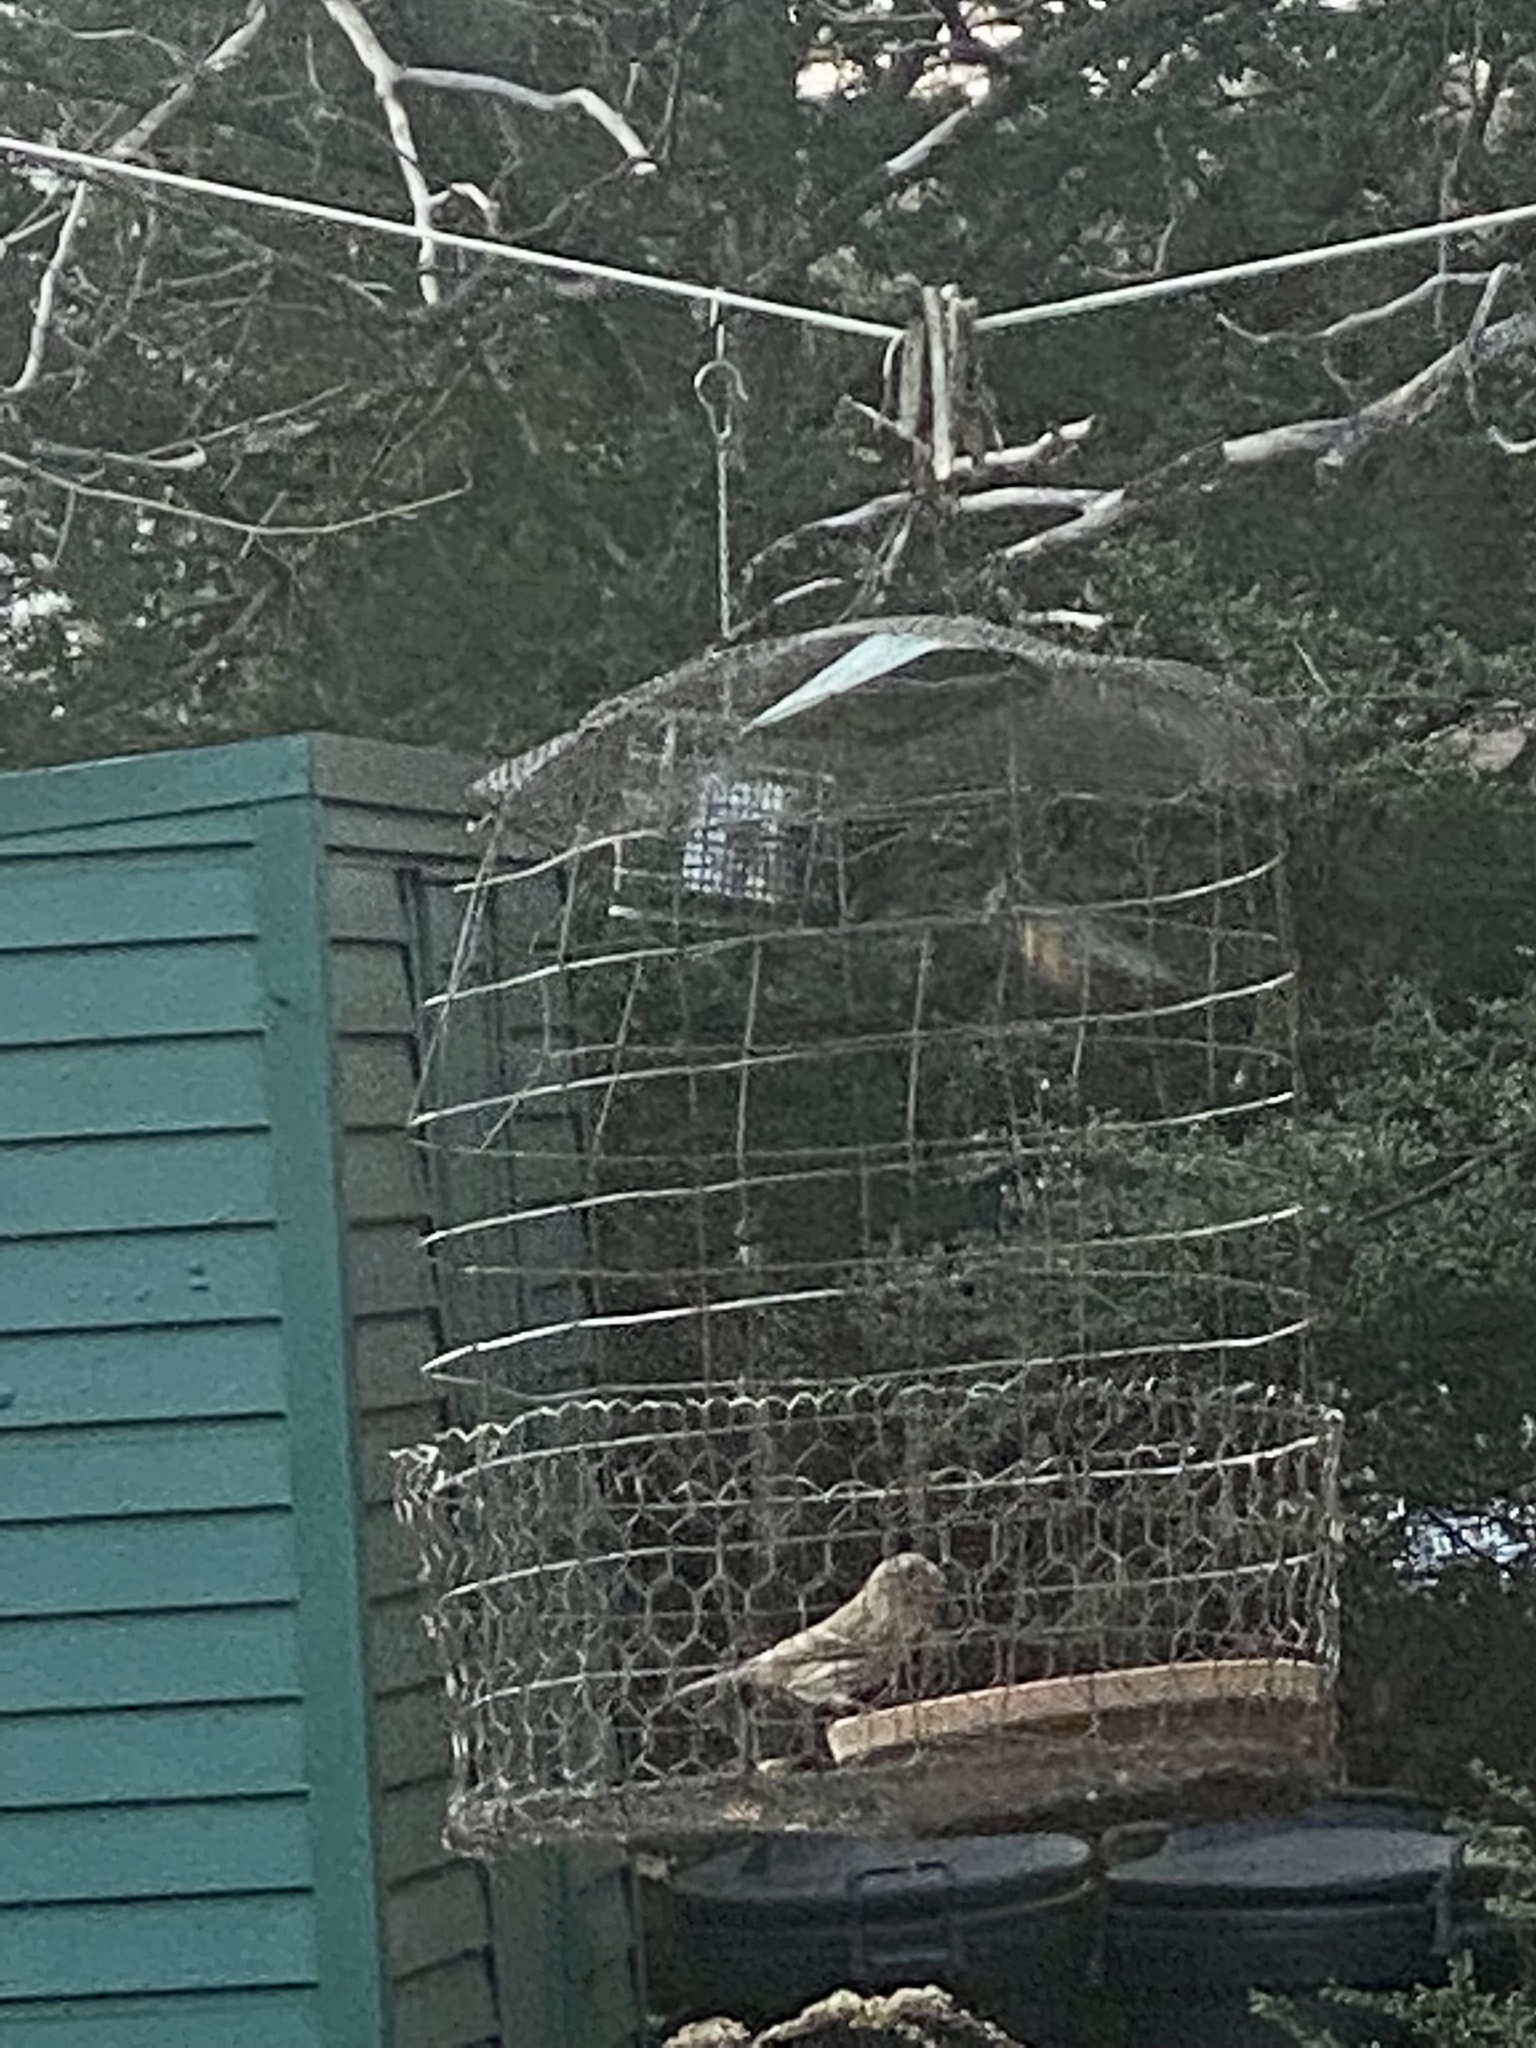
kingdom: Animalia
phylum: Chordata
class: Aves
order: Passeriformes
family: Fringillidae
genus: Haemorhous
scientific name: Haemorhous mexicanus
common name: House finch
